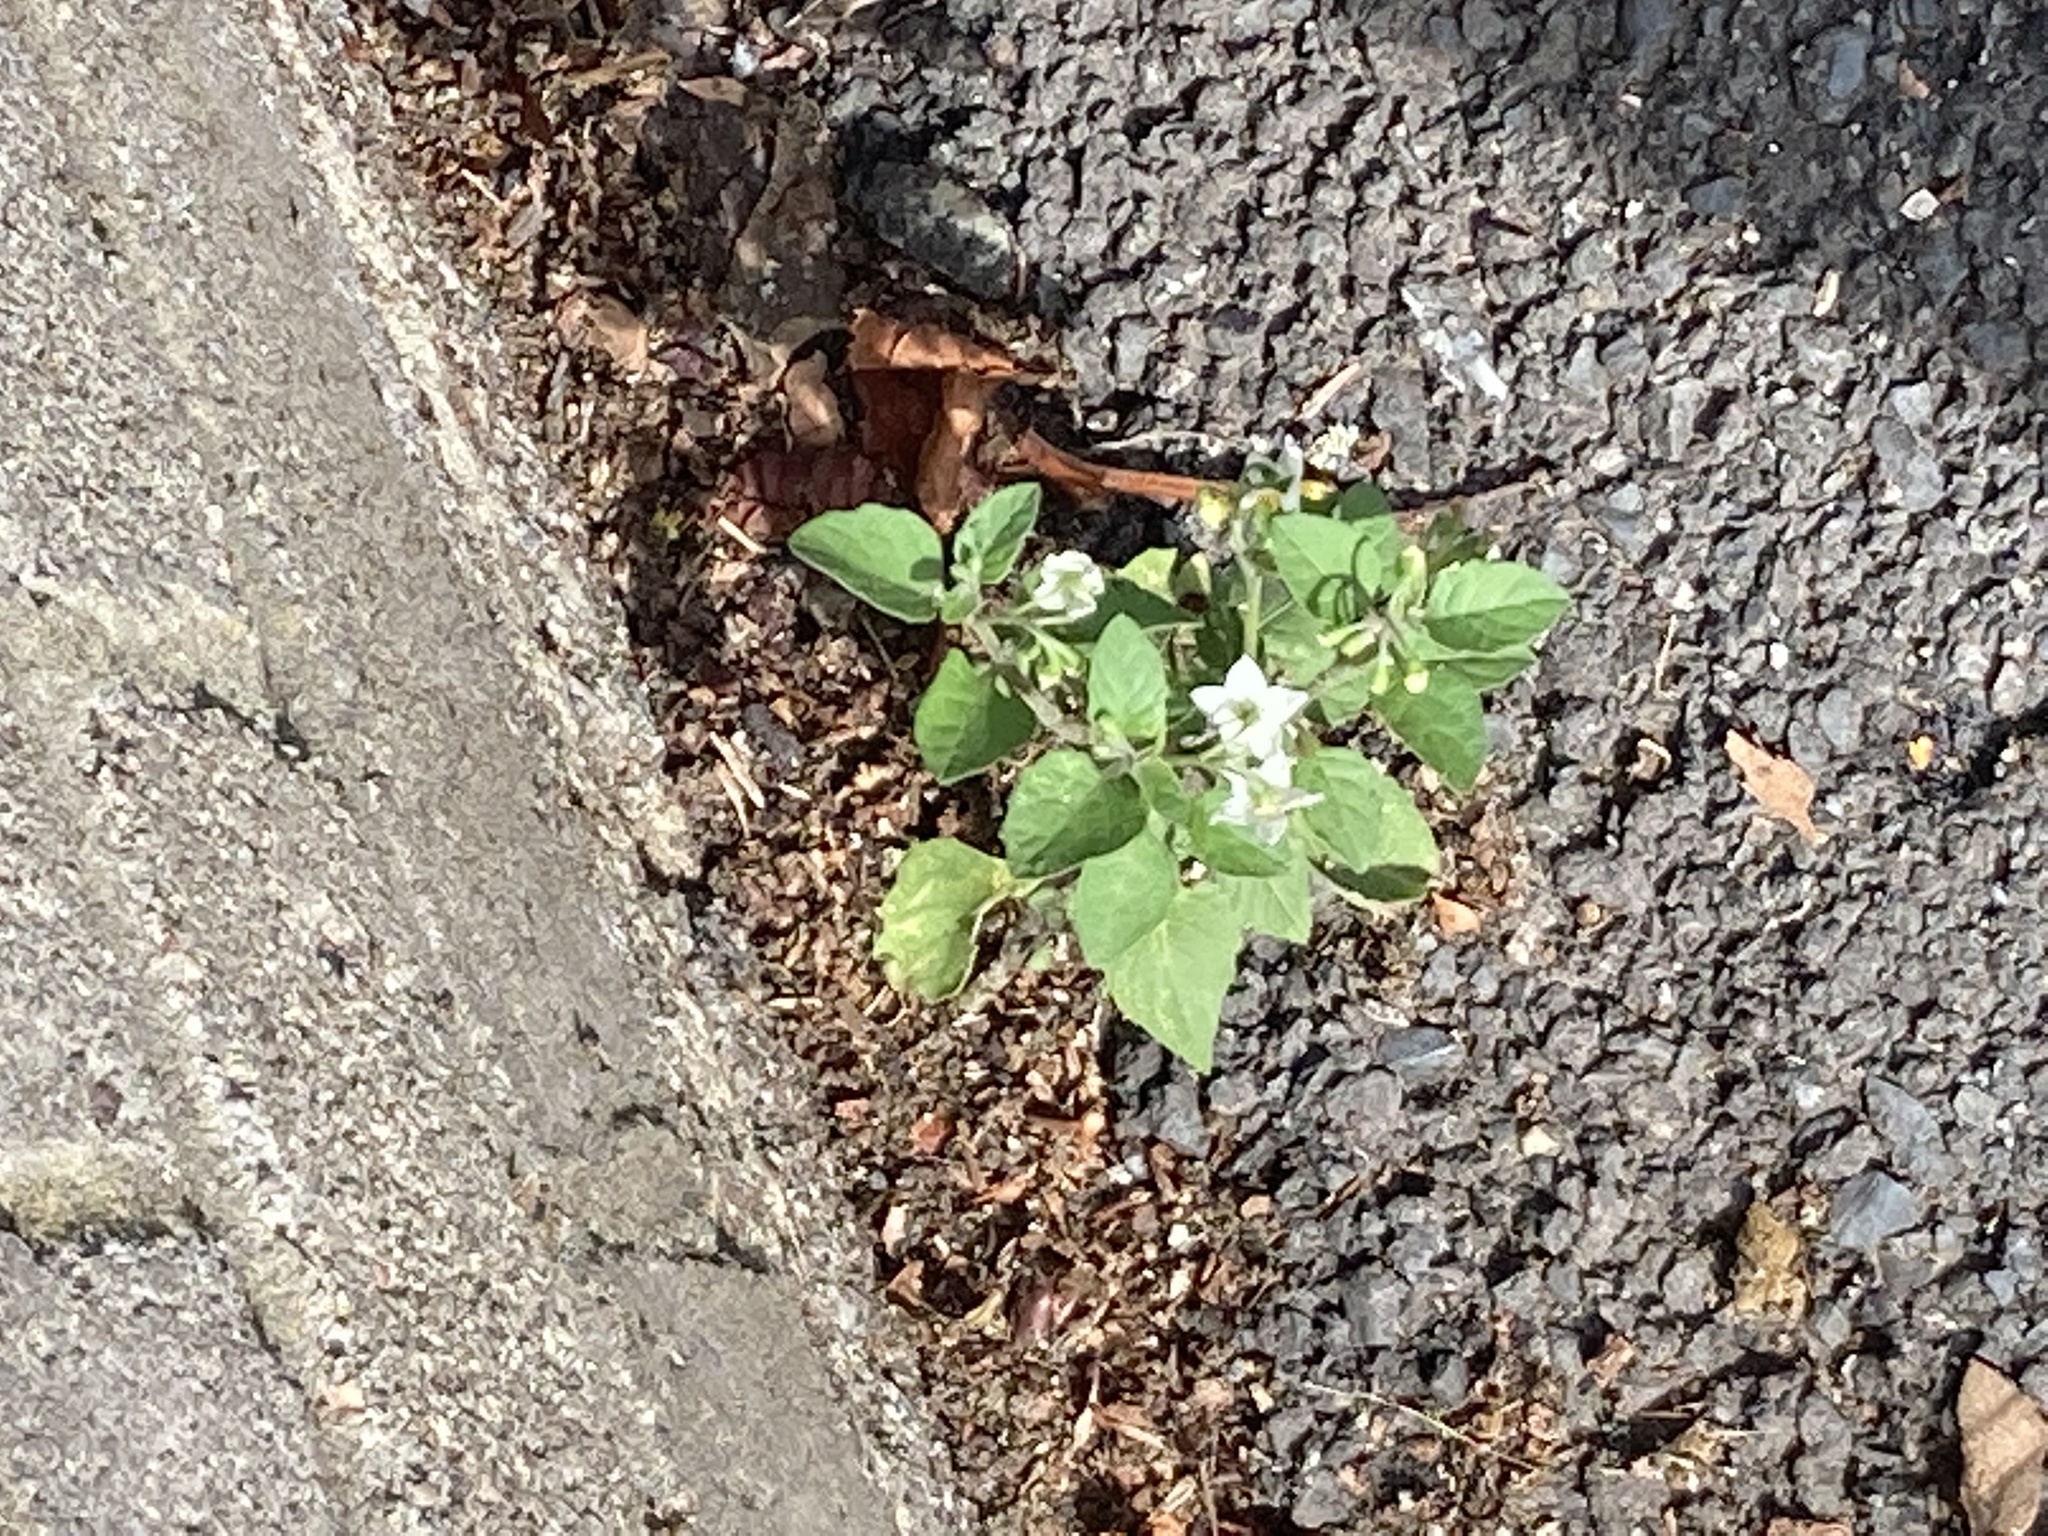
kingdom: Plantae
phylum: Tracheophyta
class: Magnoliopsida
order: Solanales
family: Solanaceae
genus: Solanum
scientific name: Solanum nigrum
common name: Black nightshade
